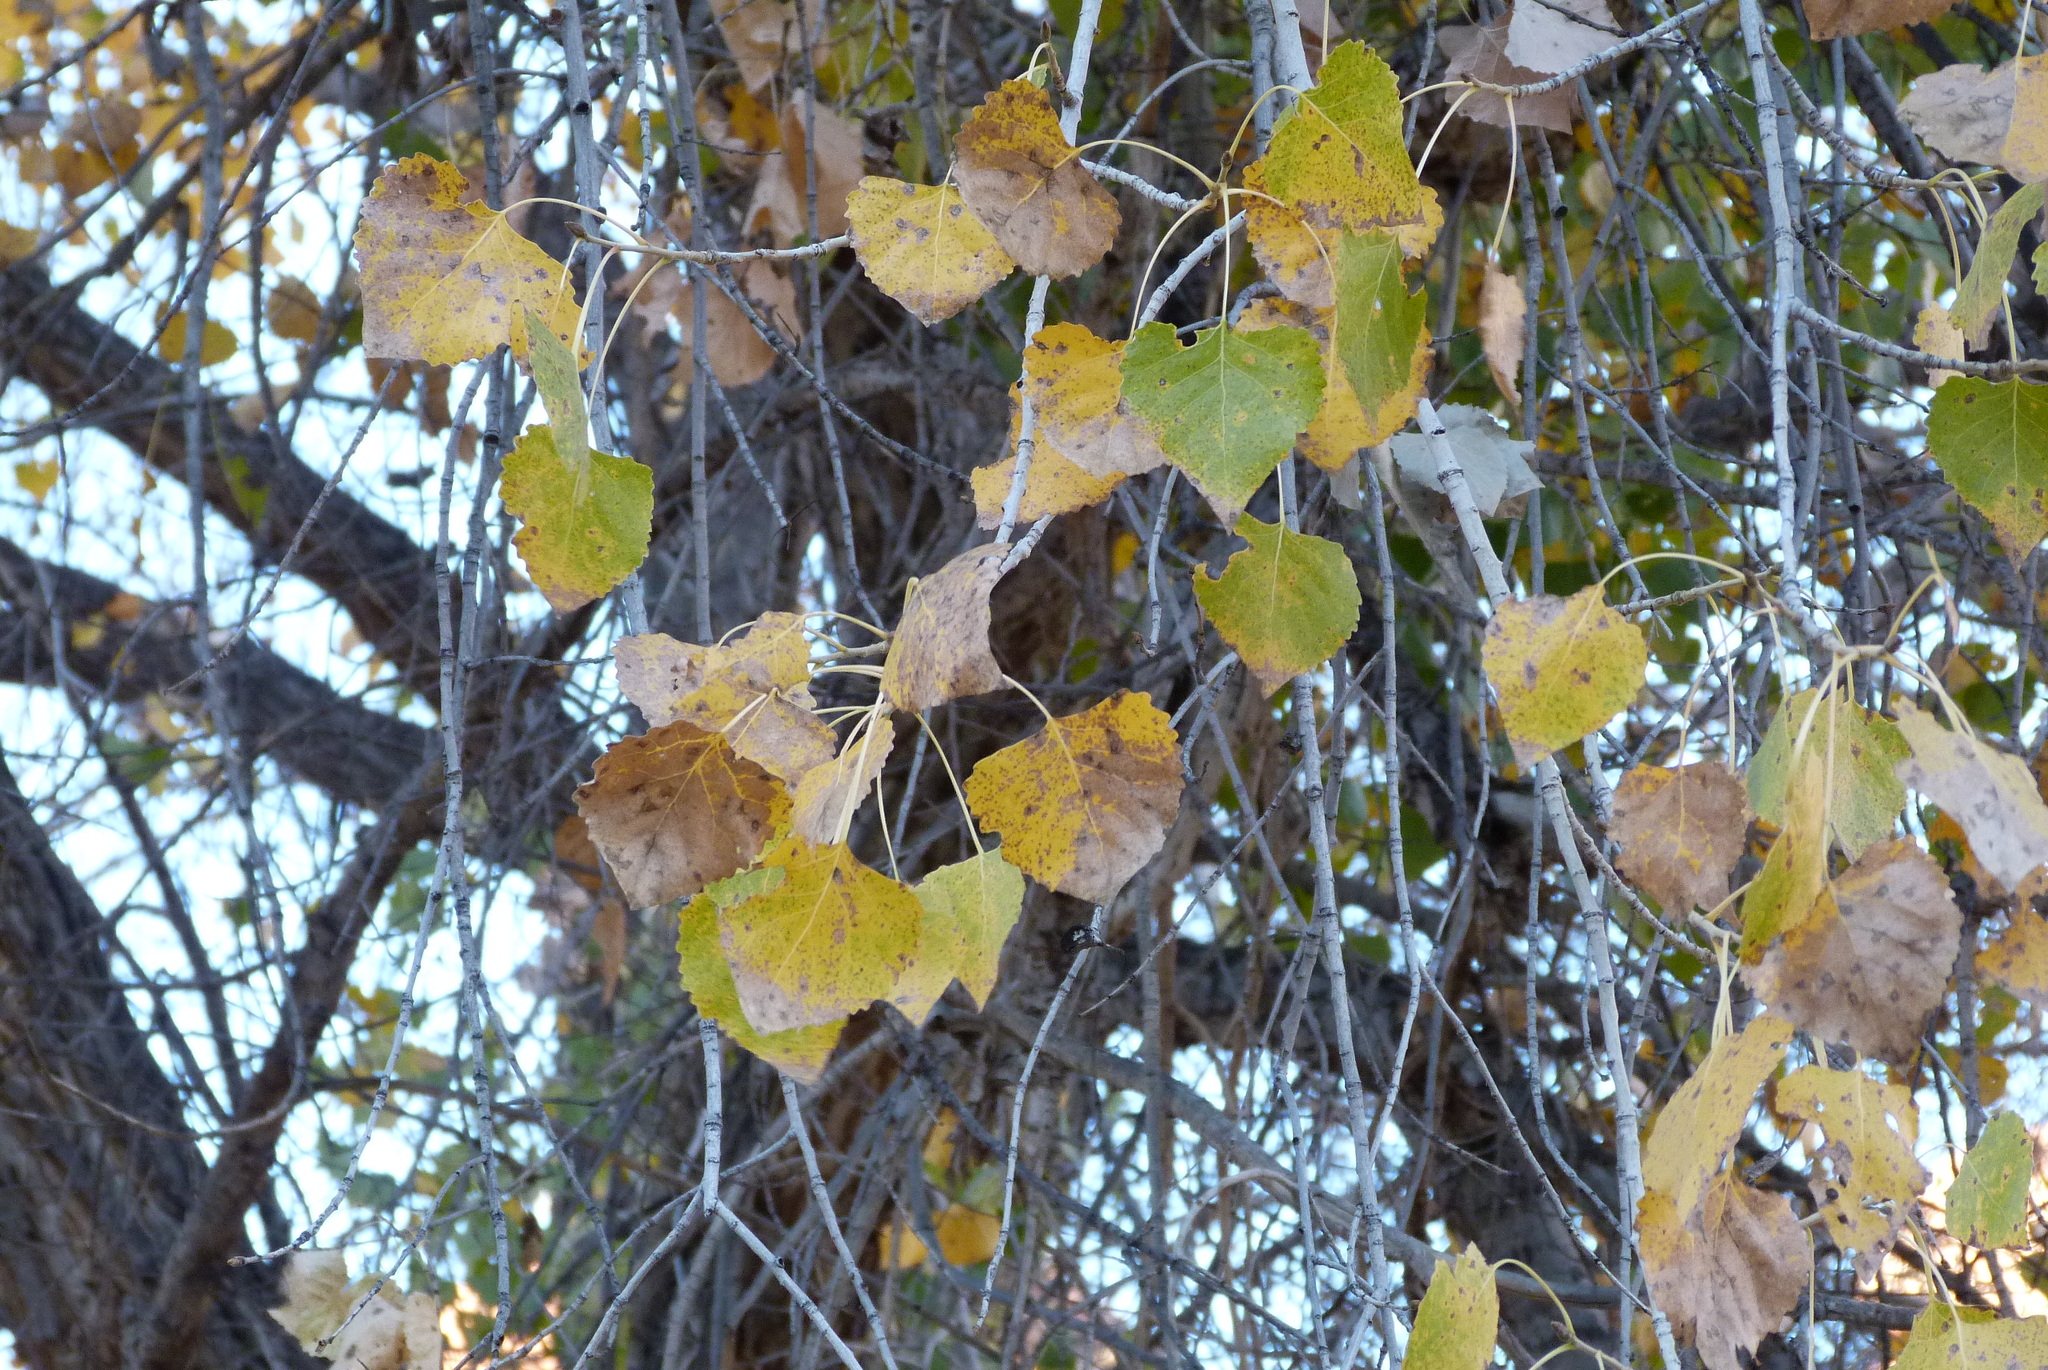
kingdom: Plantae
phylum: Tracheophyta
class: Magnoliopsida
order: Malpighiales
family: Salicaceae
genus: Populus
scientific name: Populus fremontii
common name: Fremont's cottonwood
